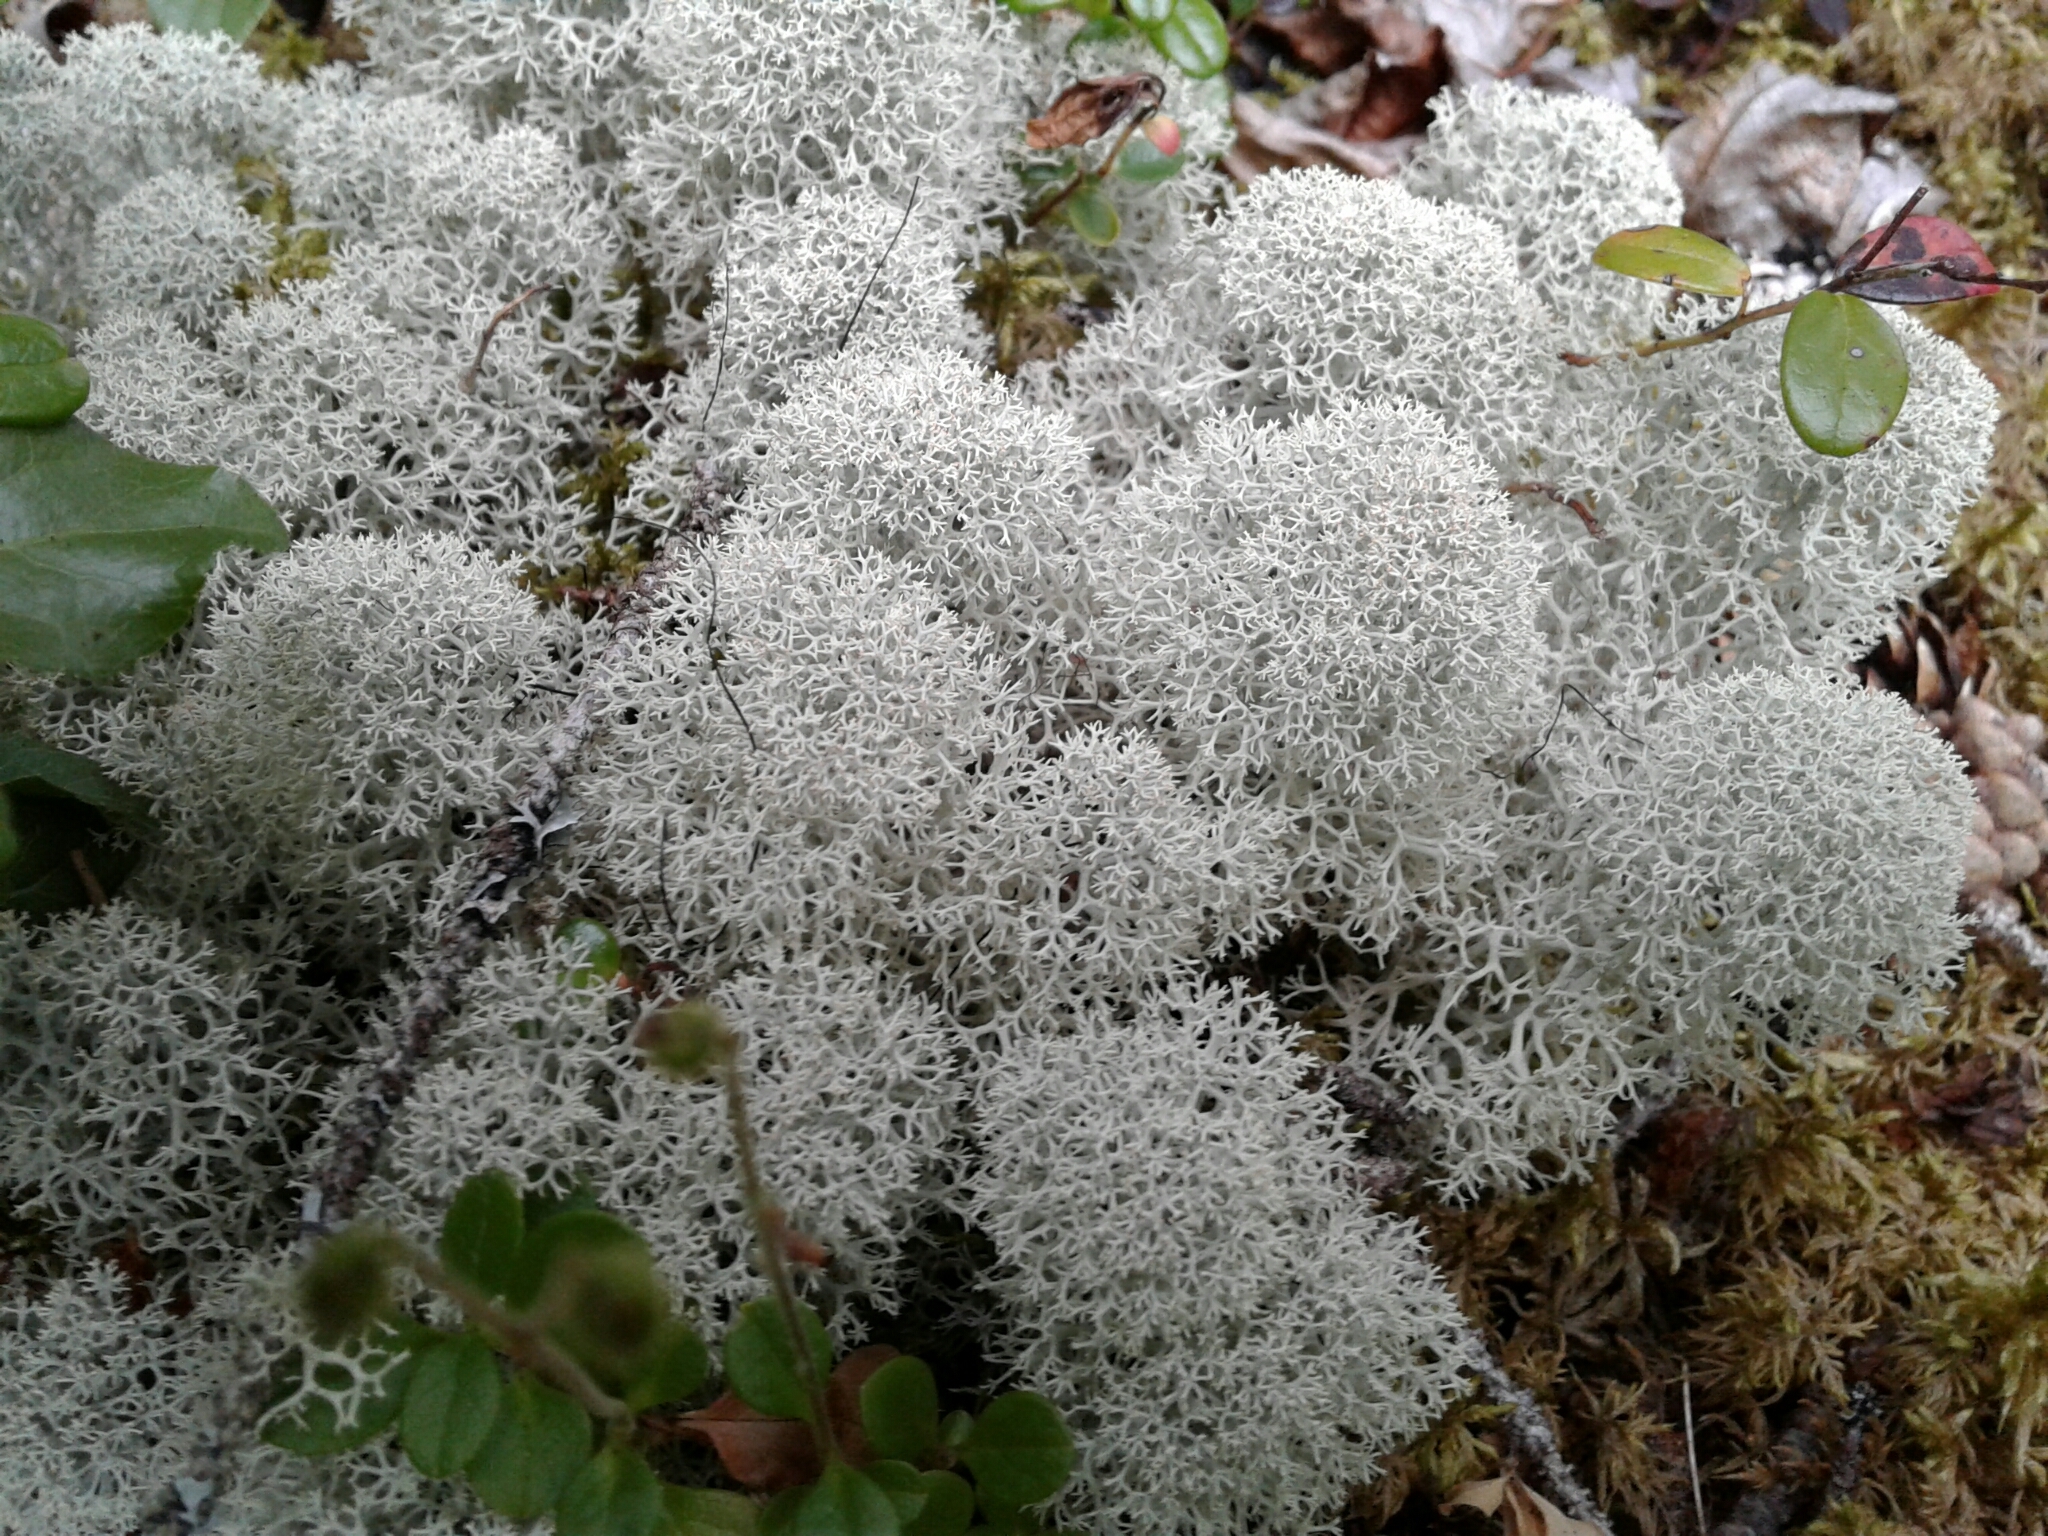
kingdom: Fungi
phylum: Ascomycota
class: Lecanoromycetes
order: Lecanorales
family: Cladoniaceae
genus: Cladonia
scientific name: Cladonia stellaris
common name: Star-tipped reindeer lichen
